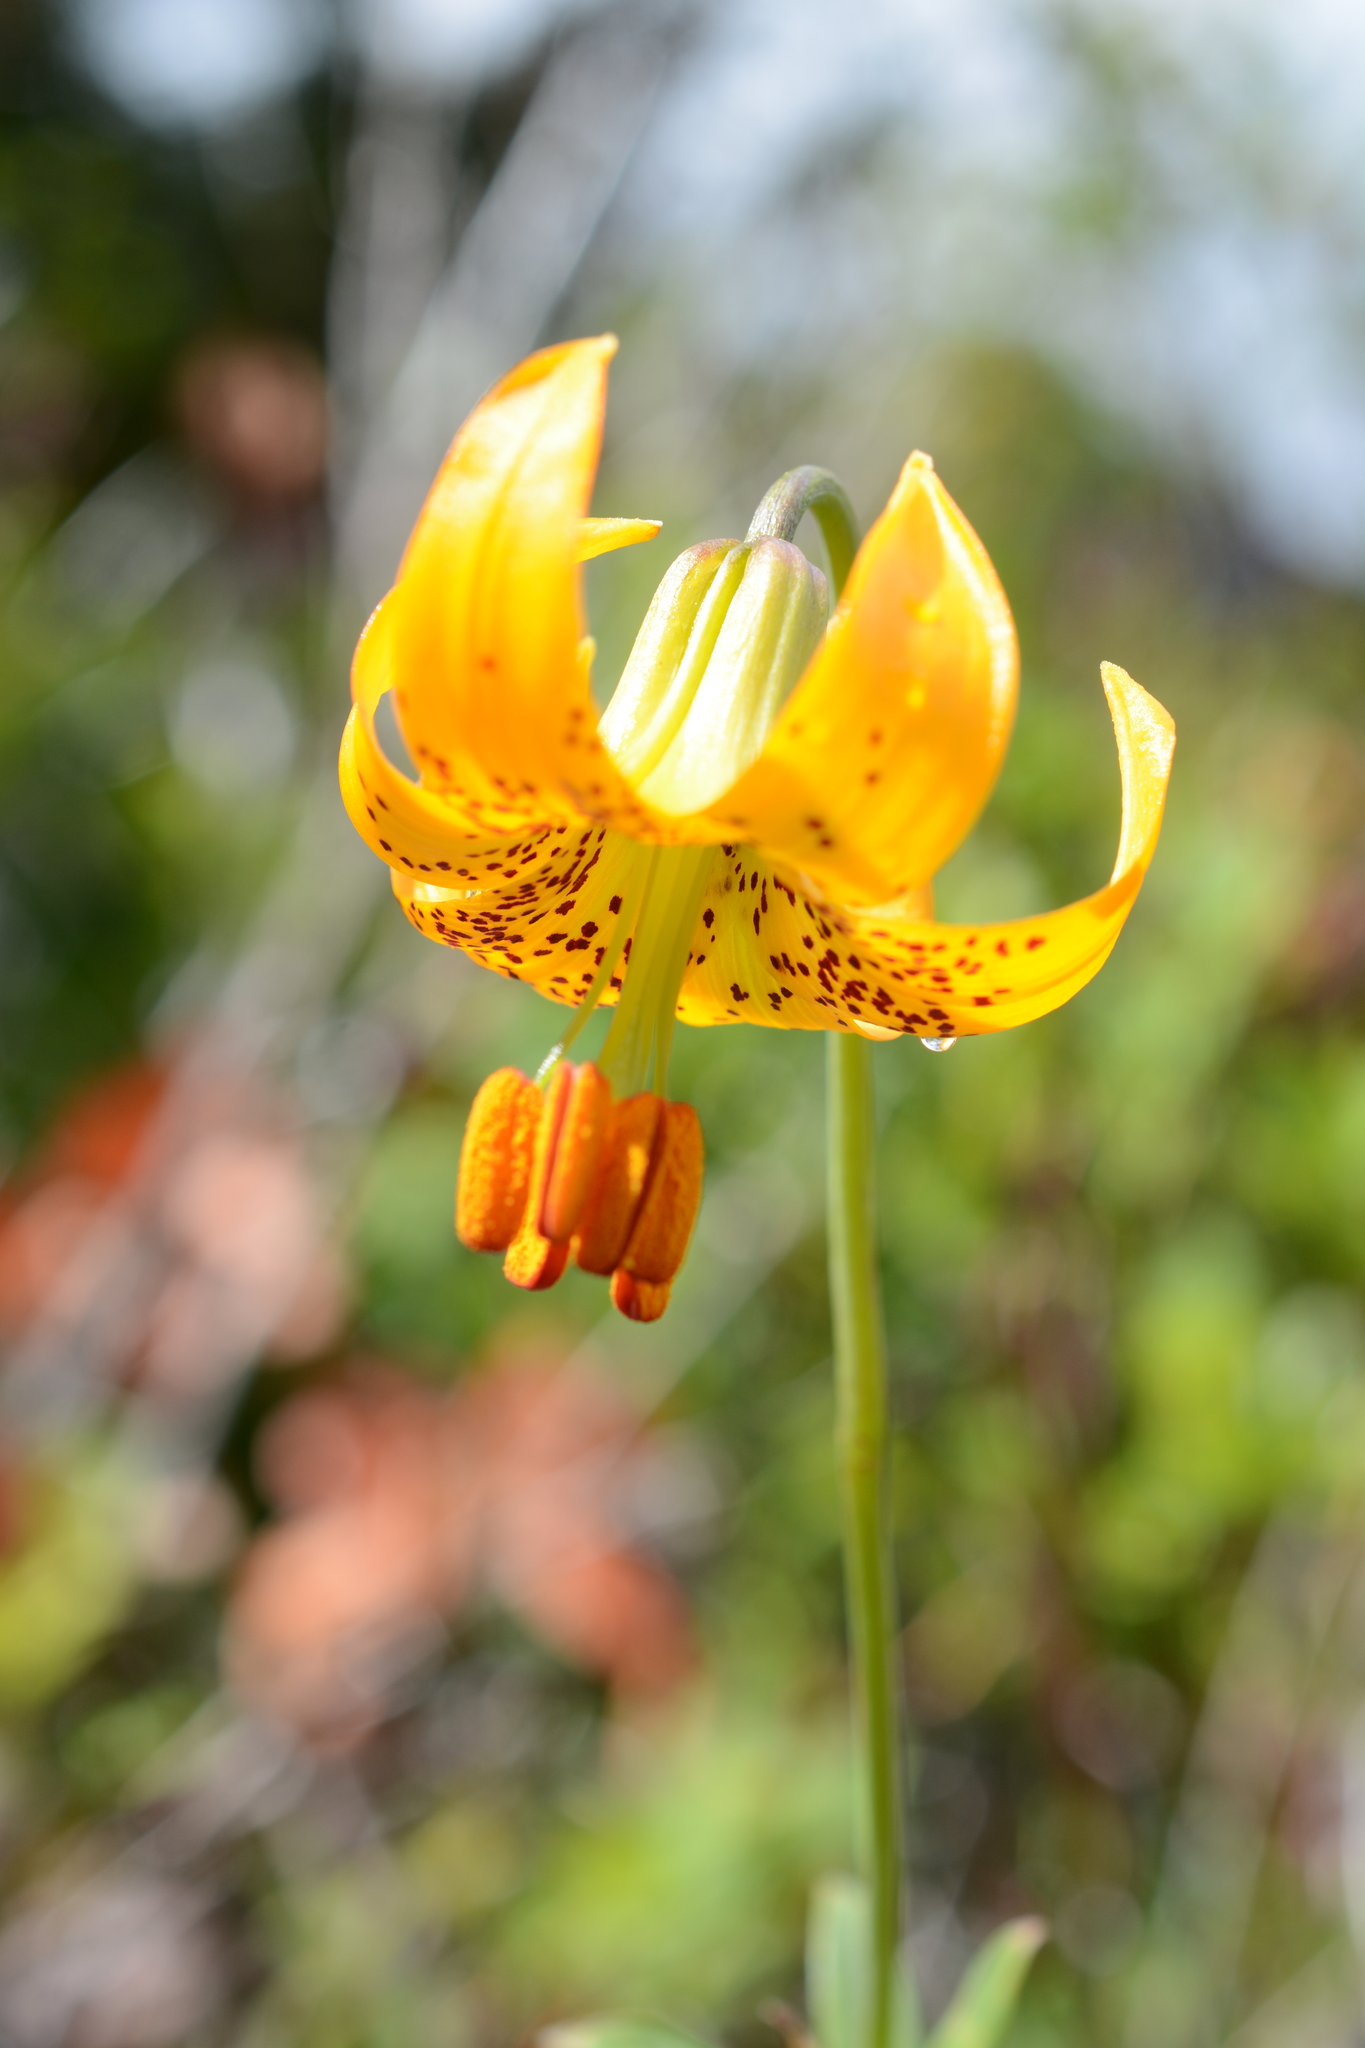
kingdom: Plantae
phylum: Tracheophyta
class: Liliopsida
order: Liliales
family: Liliaceae
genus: Lilium
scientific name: Lilium columbianum
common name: Columbia lily
